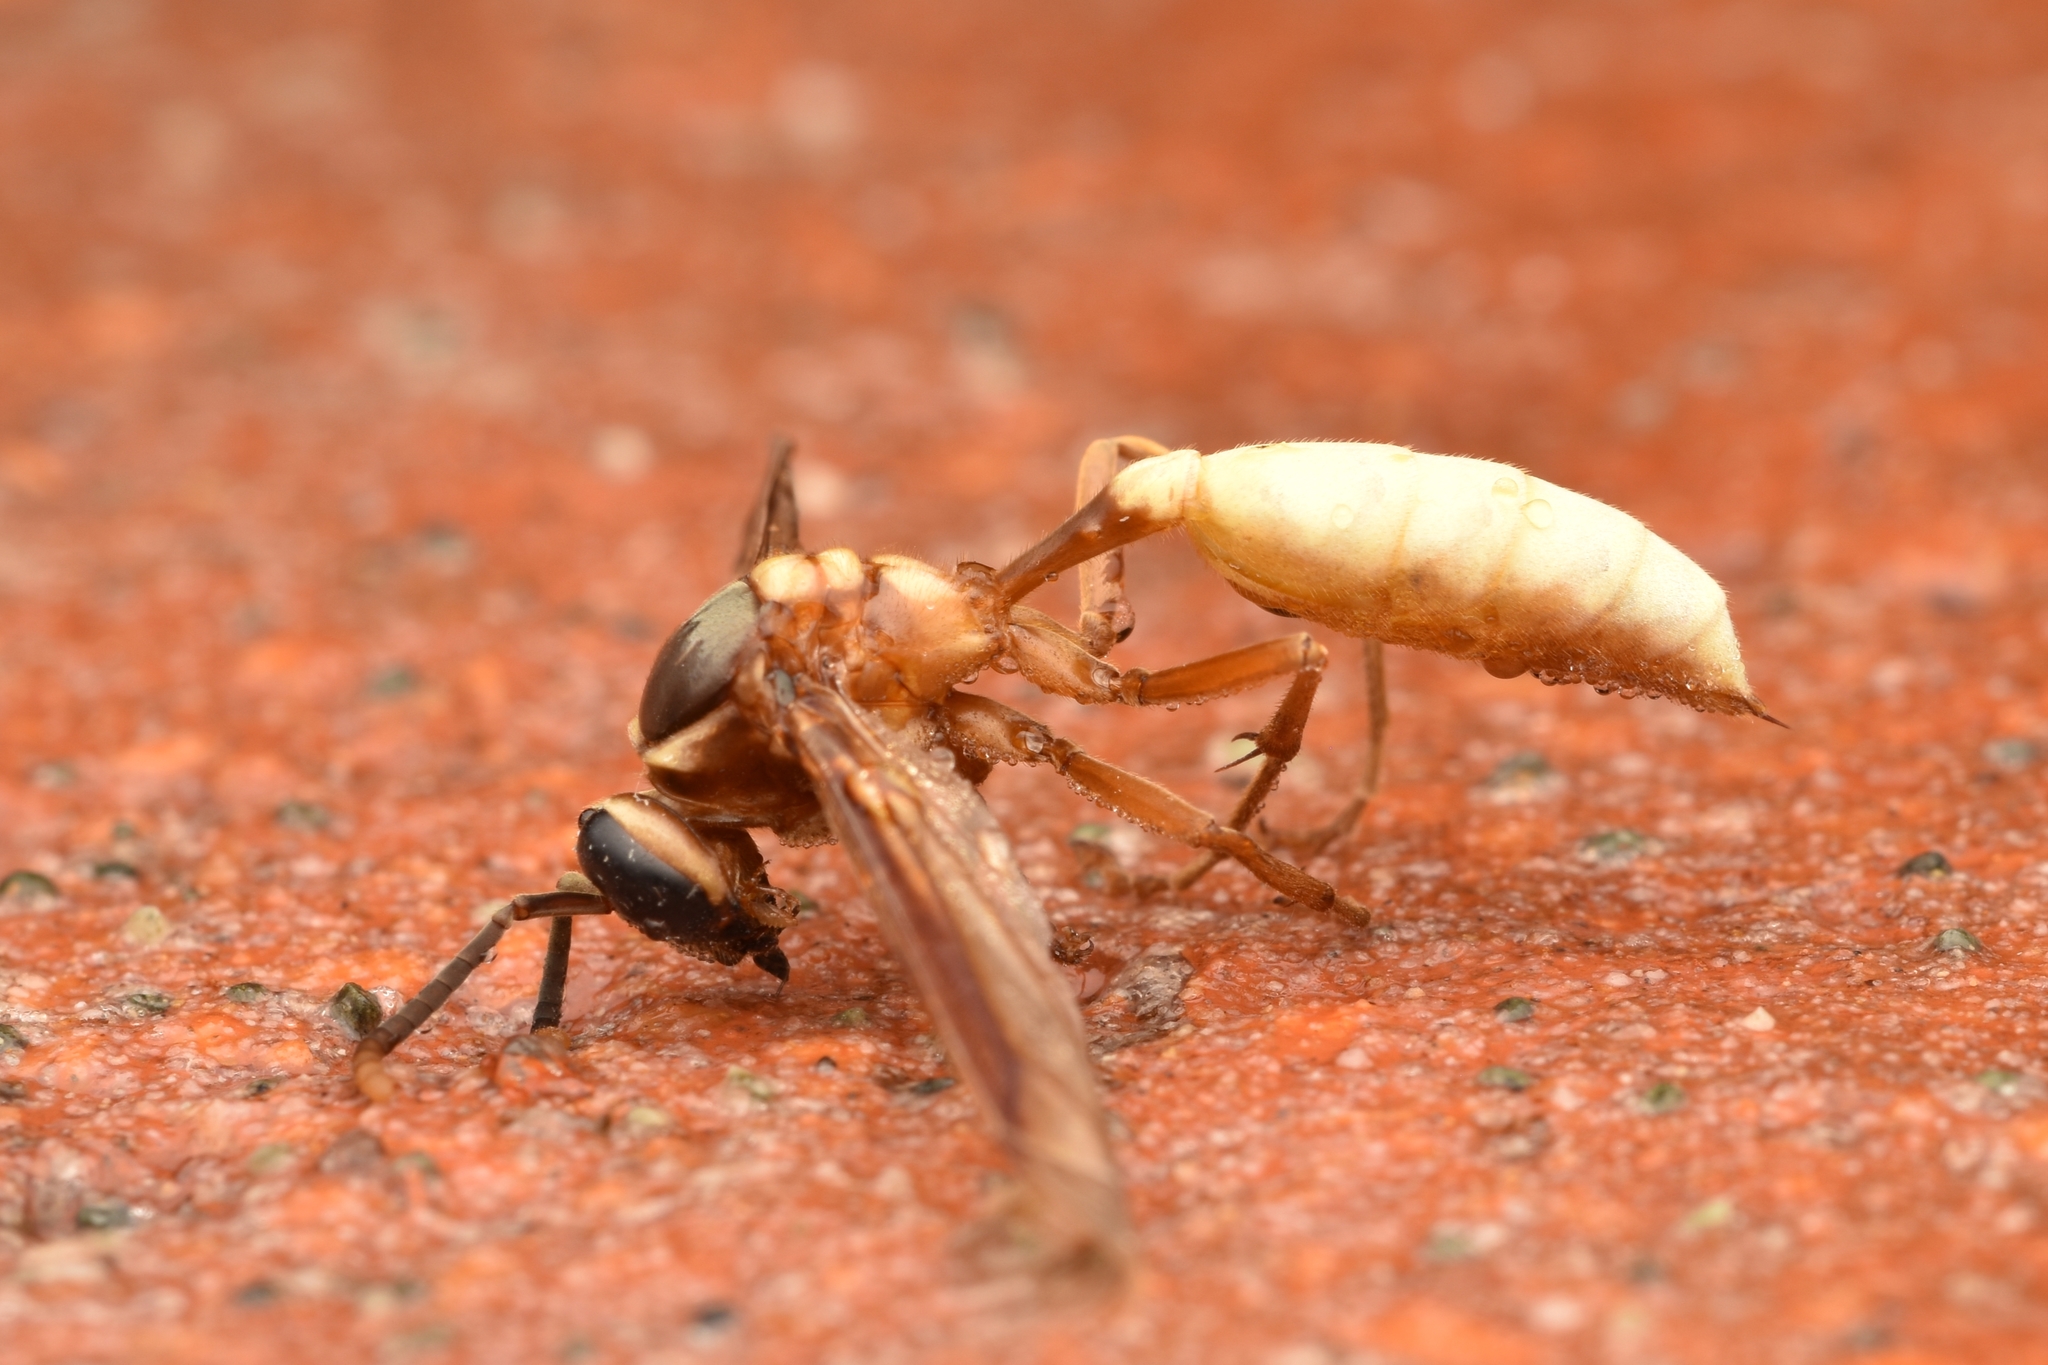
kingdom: Animalia
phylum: Arthropoda
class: Insecta
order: Hymenoptera
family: Vespidae
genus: Apoica
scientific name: Apoica pallens
